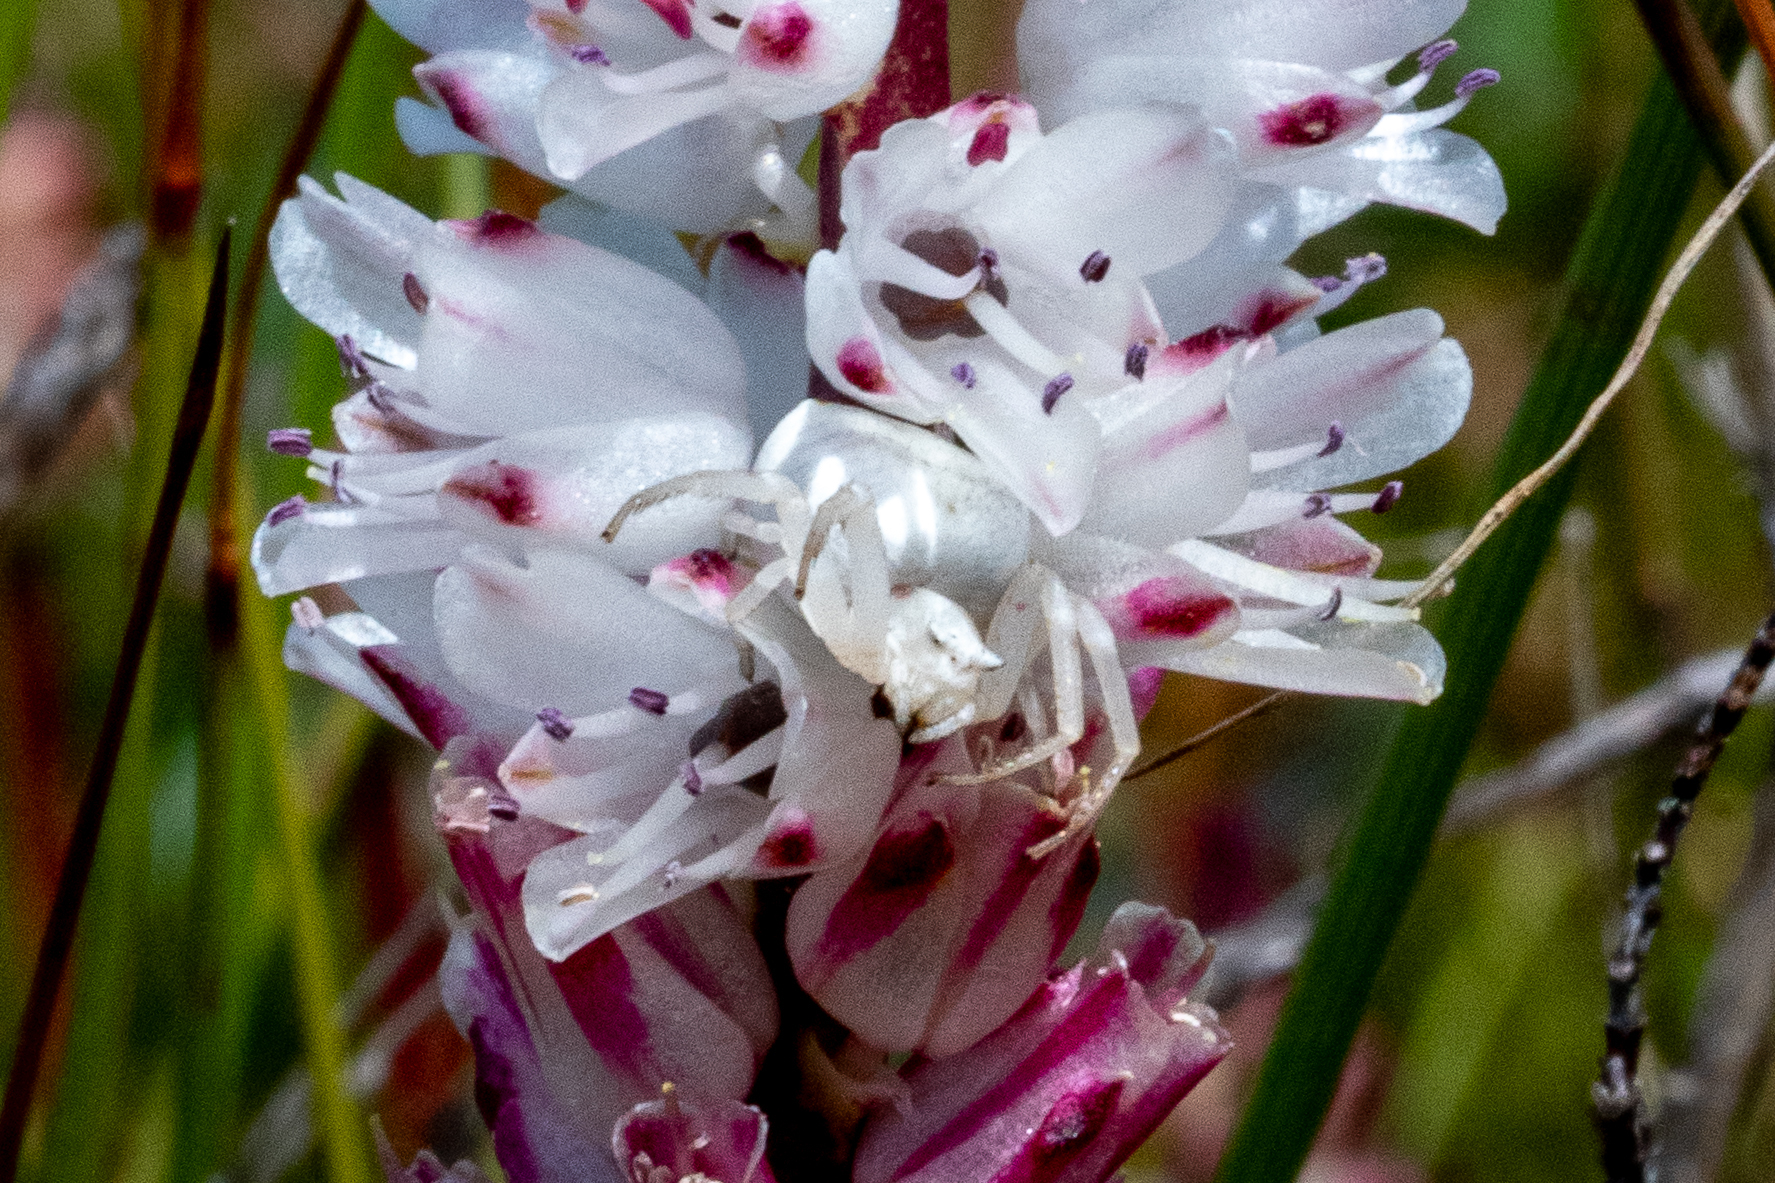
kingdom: Animalia
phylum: Arthropoda
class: Arachnida
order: Araneae
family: Thomisidae
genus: Thomisus
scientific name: Thomisus citrinellus
